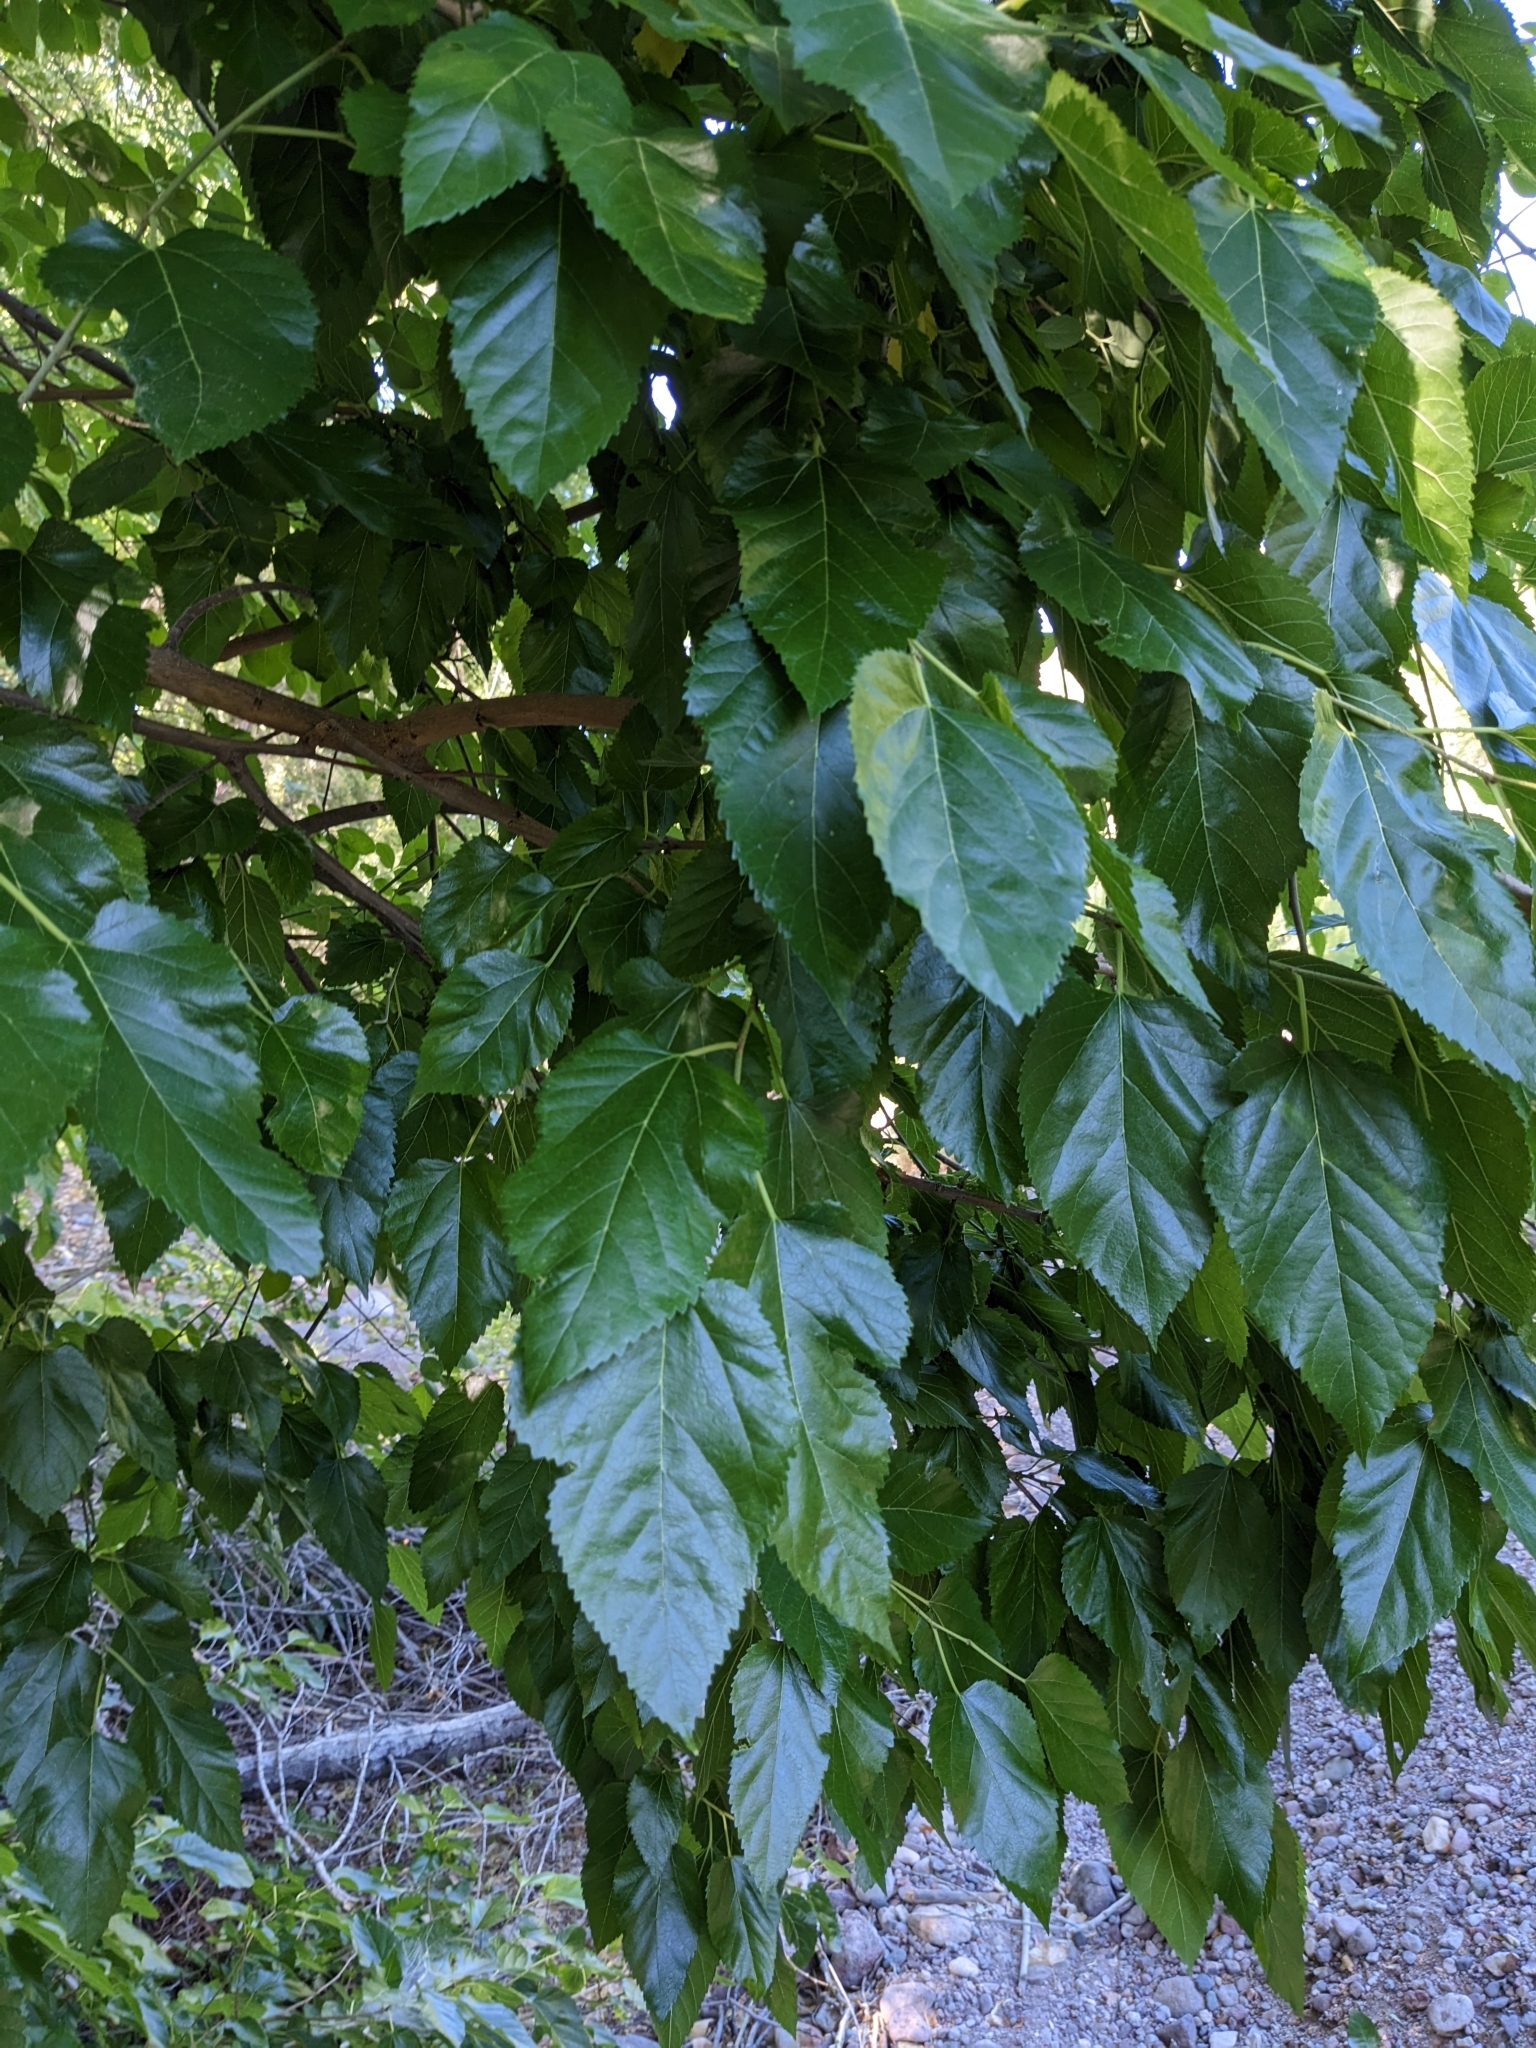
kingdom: Plantae
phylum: Tracheophyta
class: Magnoliopsida
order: Rosales
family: Moraceae
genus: Morus
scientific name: Morus alba
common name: White mulberry
